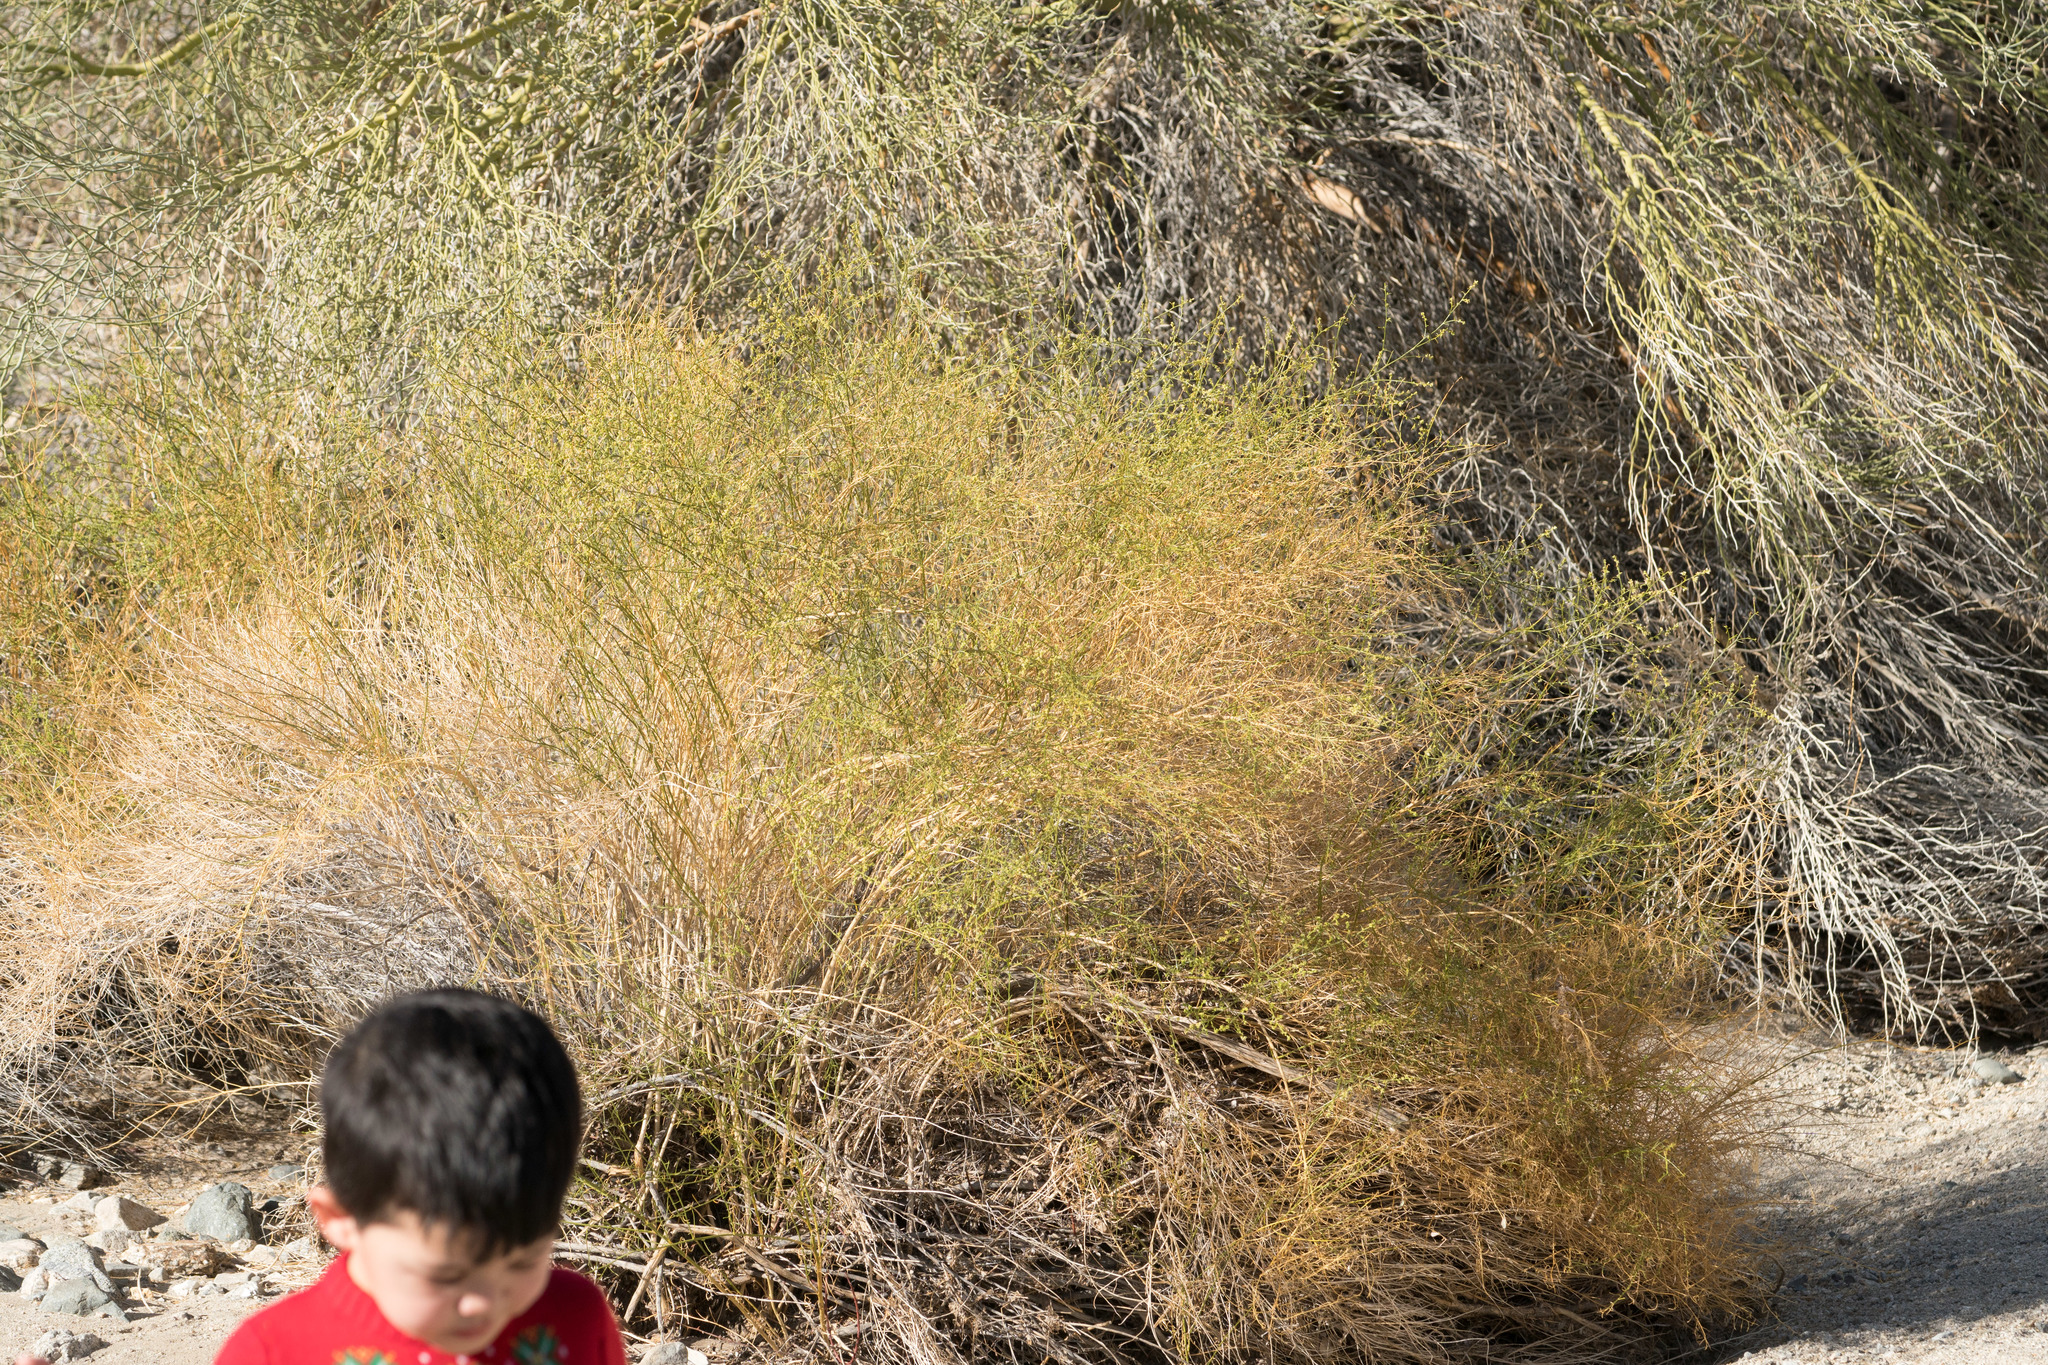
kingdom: Plantae
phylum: Tracheophyta
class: Magnoliopsida
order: Asterales
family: Asteraceae
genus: Ambrosia
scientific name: Ambrosia salsola
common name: Burrobrush
